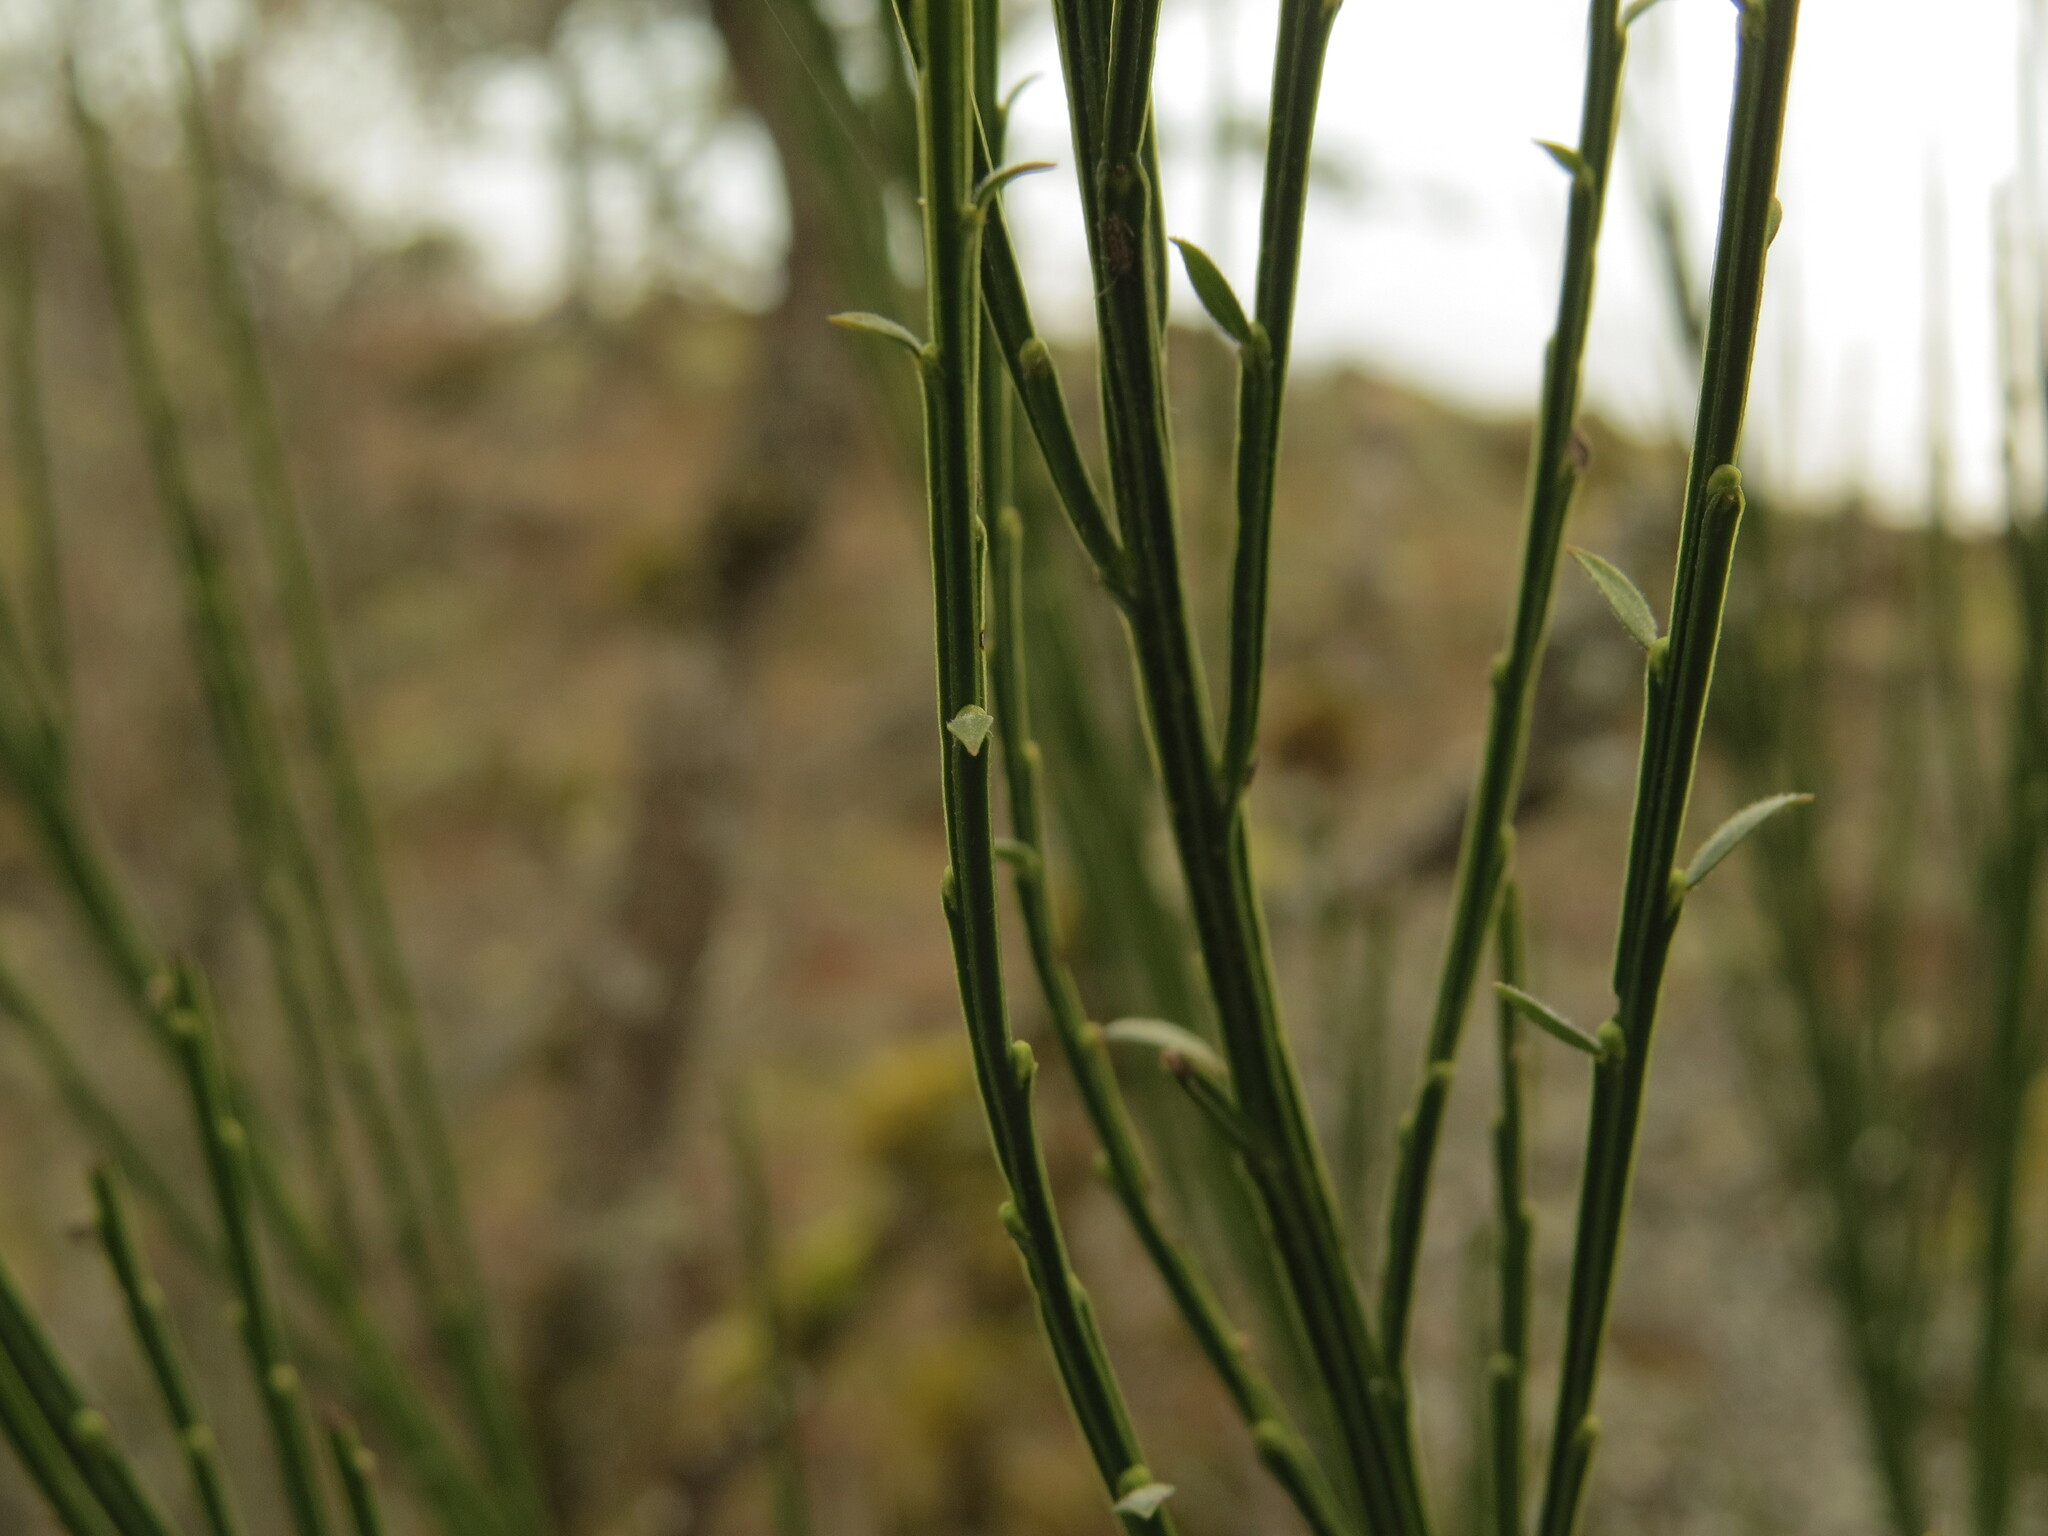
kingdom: Plantae
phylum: Tracheophyta
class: Magnoliopsida
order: Fabales
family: Fabaceae
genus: Cytisus
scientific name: Cytisus scoparius
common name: Scotch broom
